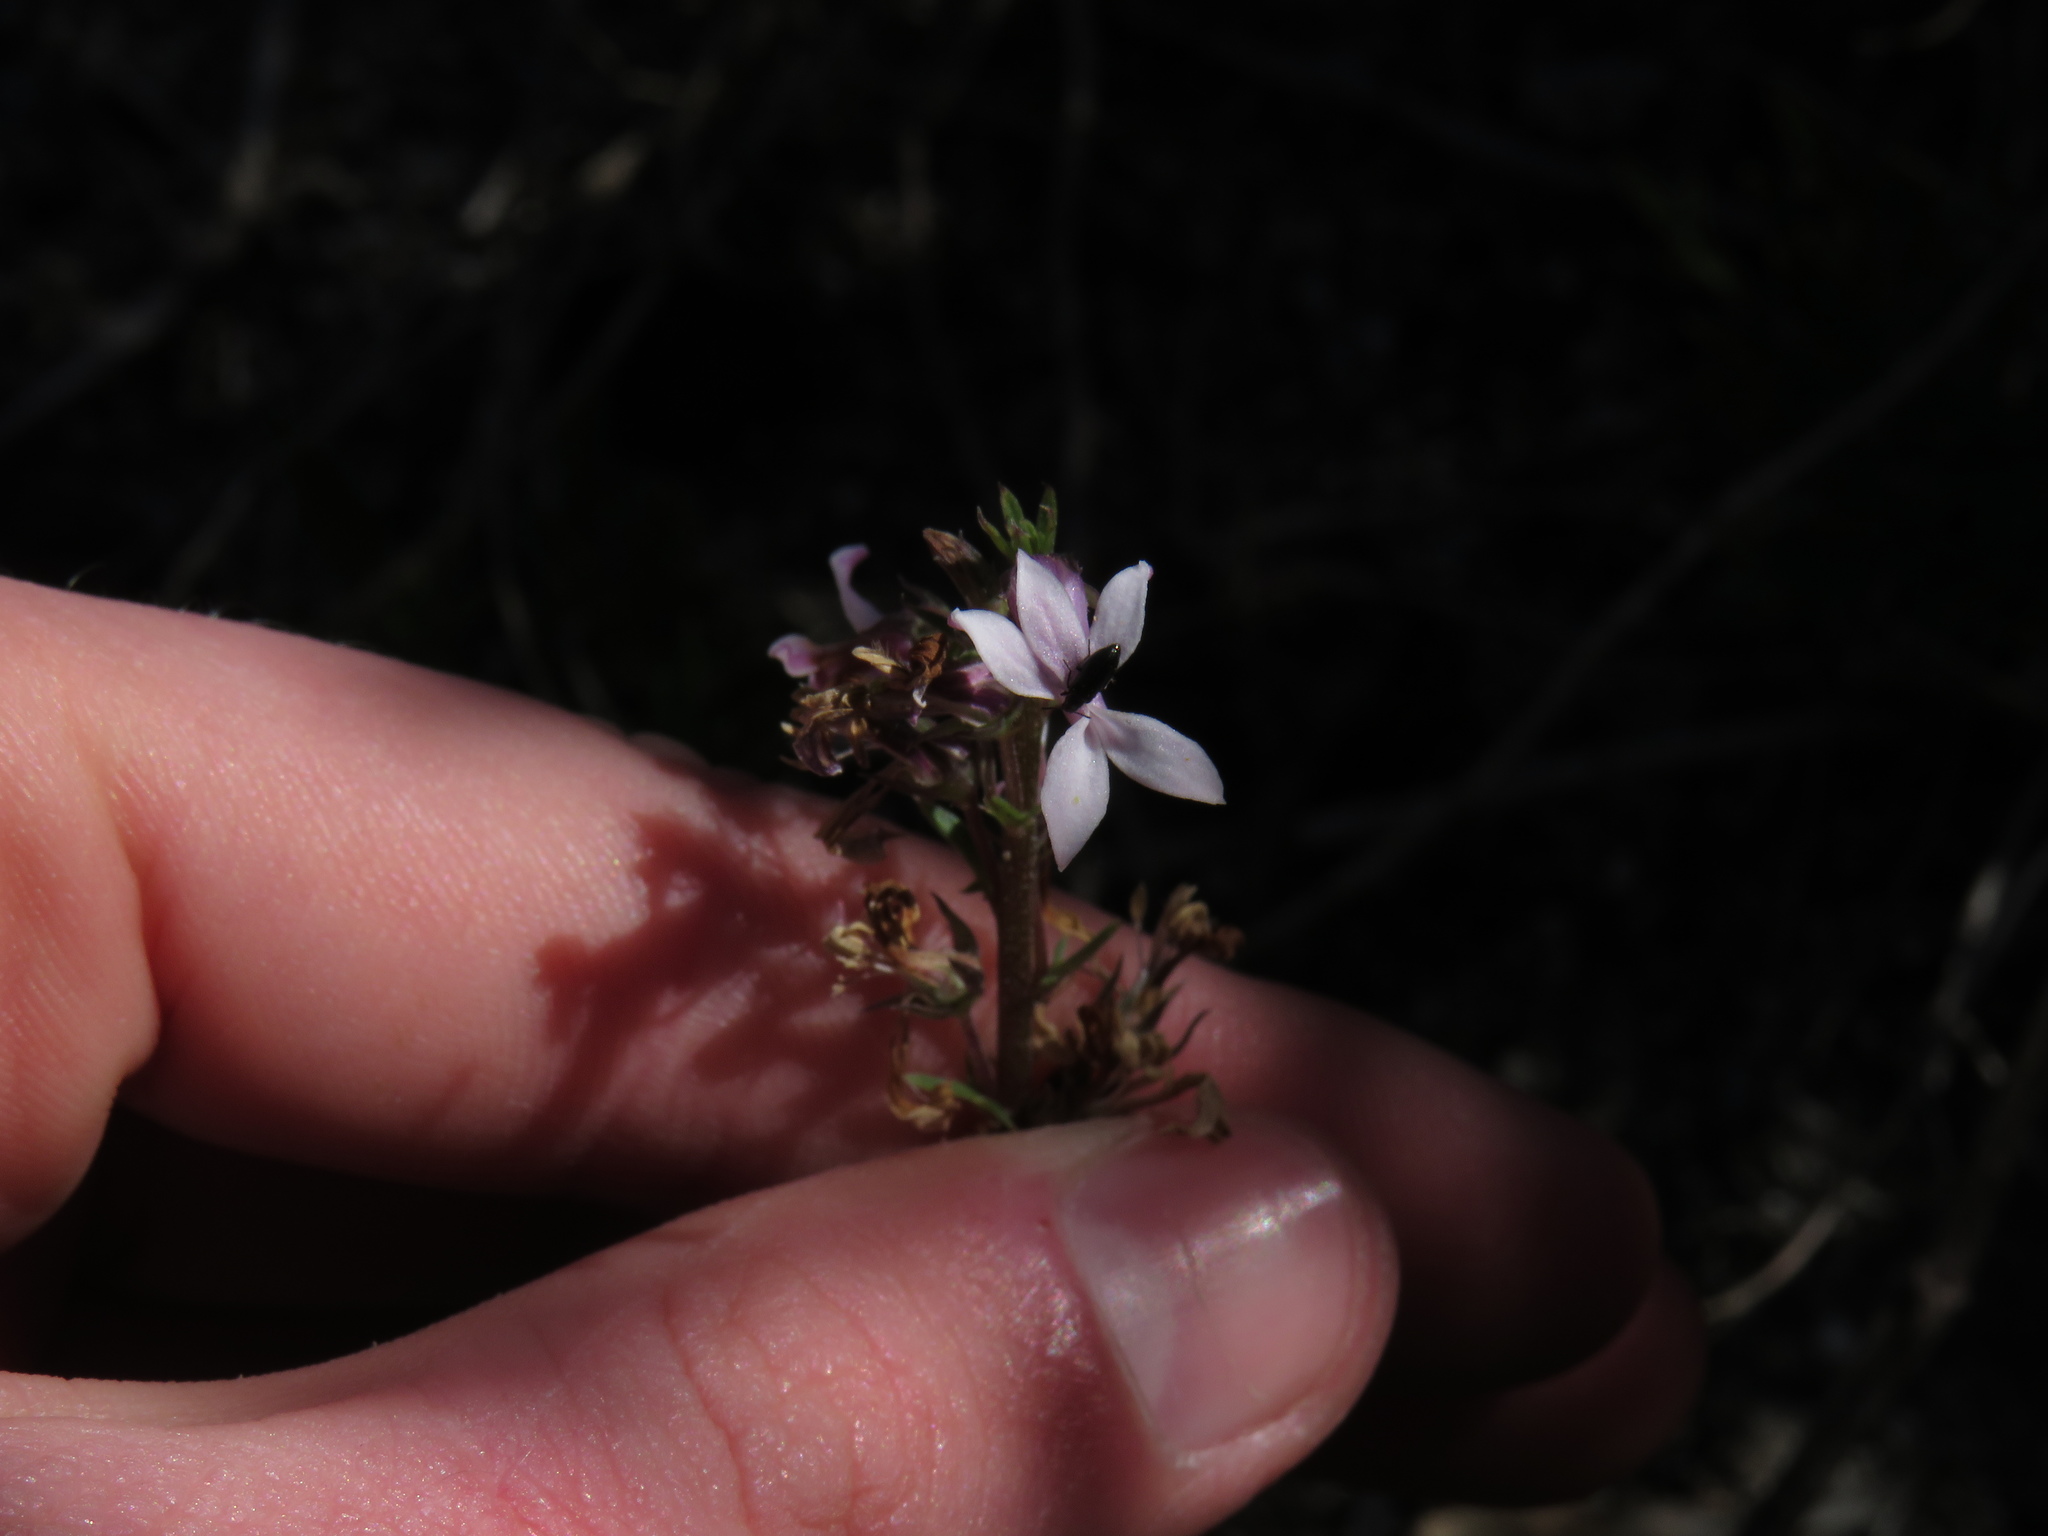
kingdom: Plantae
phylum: Tracheophyta
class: Magnoliopsida
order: Asterales
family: Campanulaceae
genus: Cyphia
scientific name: Cyphia bulbosa
